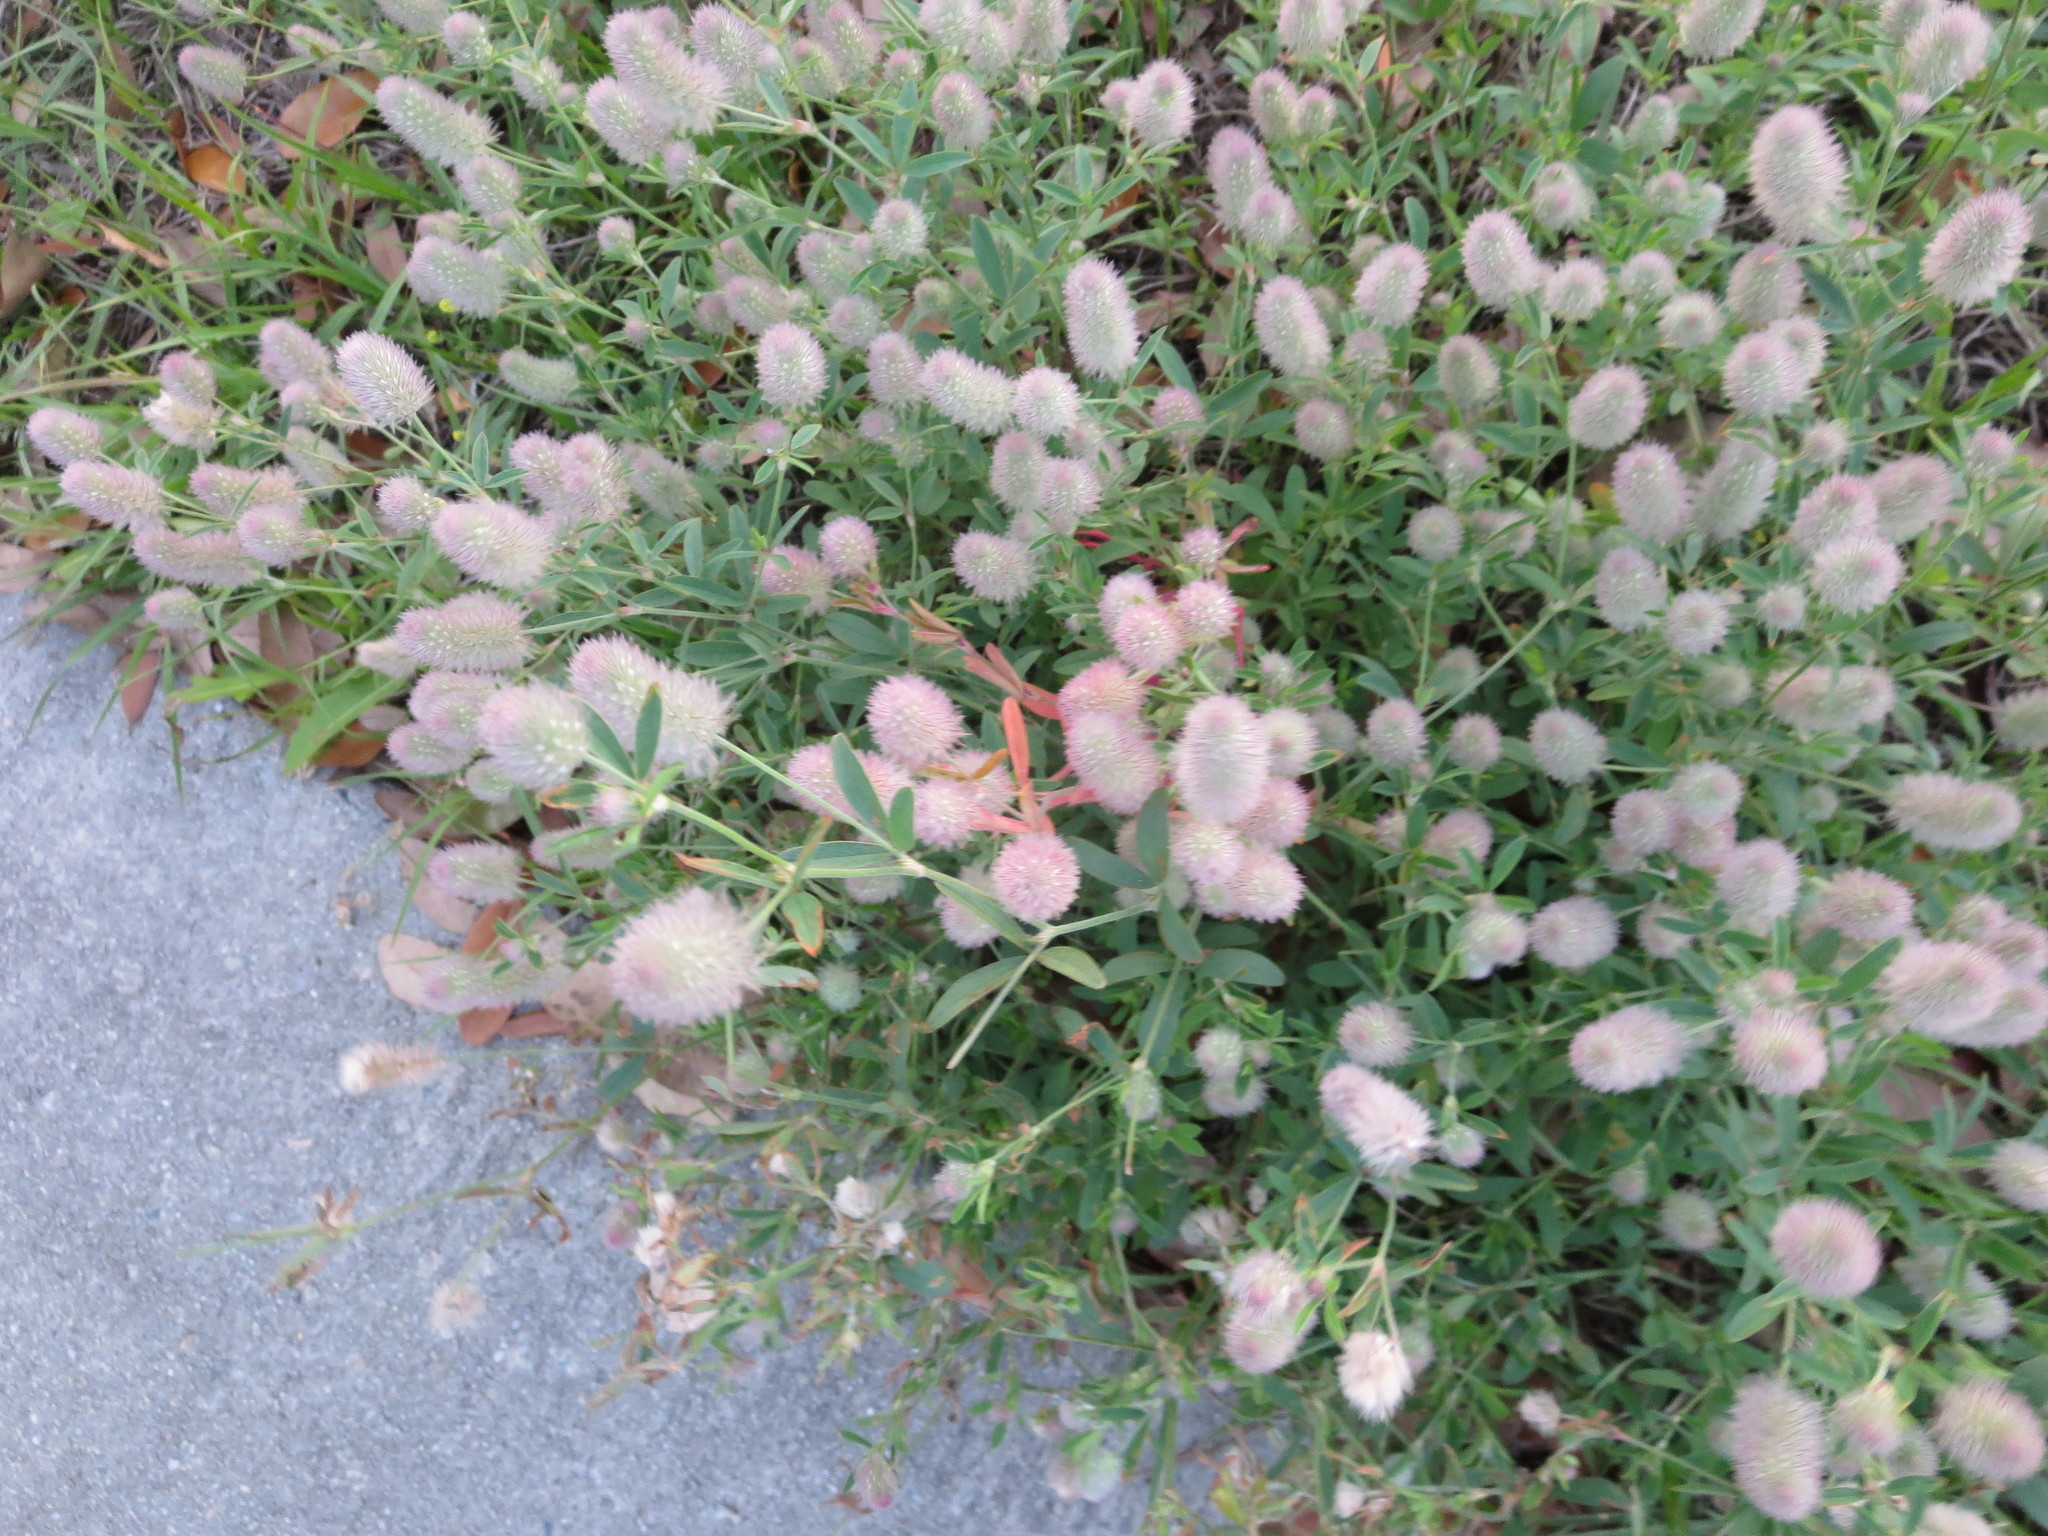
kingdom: Plantae
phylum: Tracheophyta
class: Magnoliopsida
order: Fabales
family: Fabaceae
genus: Trifolium
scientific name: Trifolium arvense
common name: Hare's-foot clover
